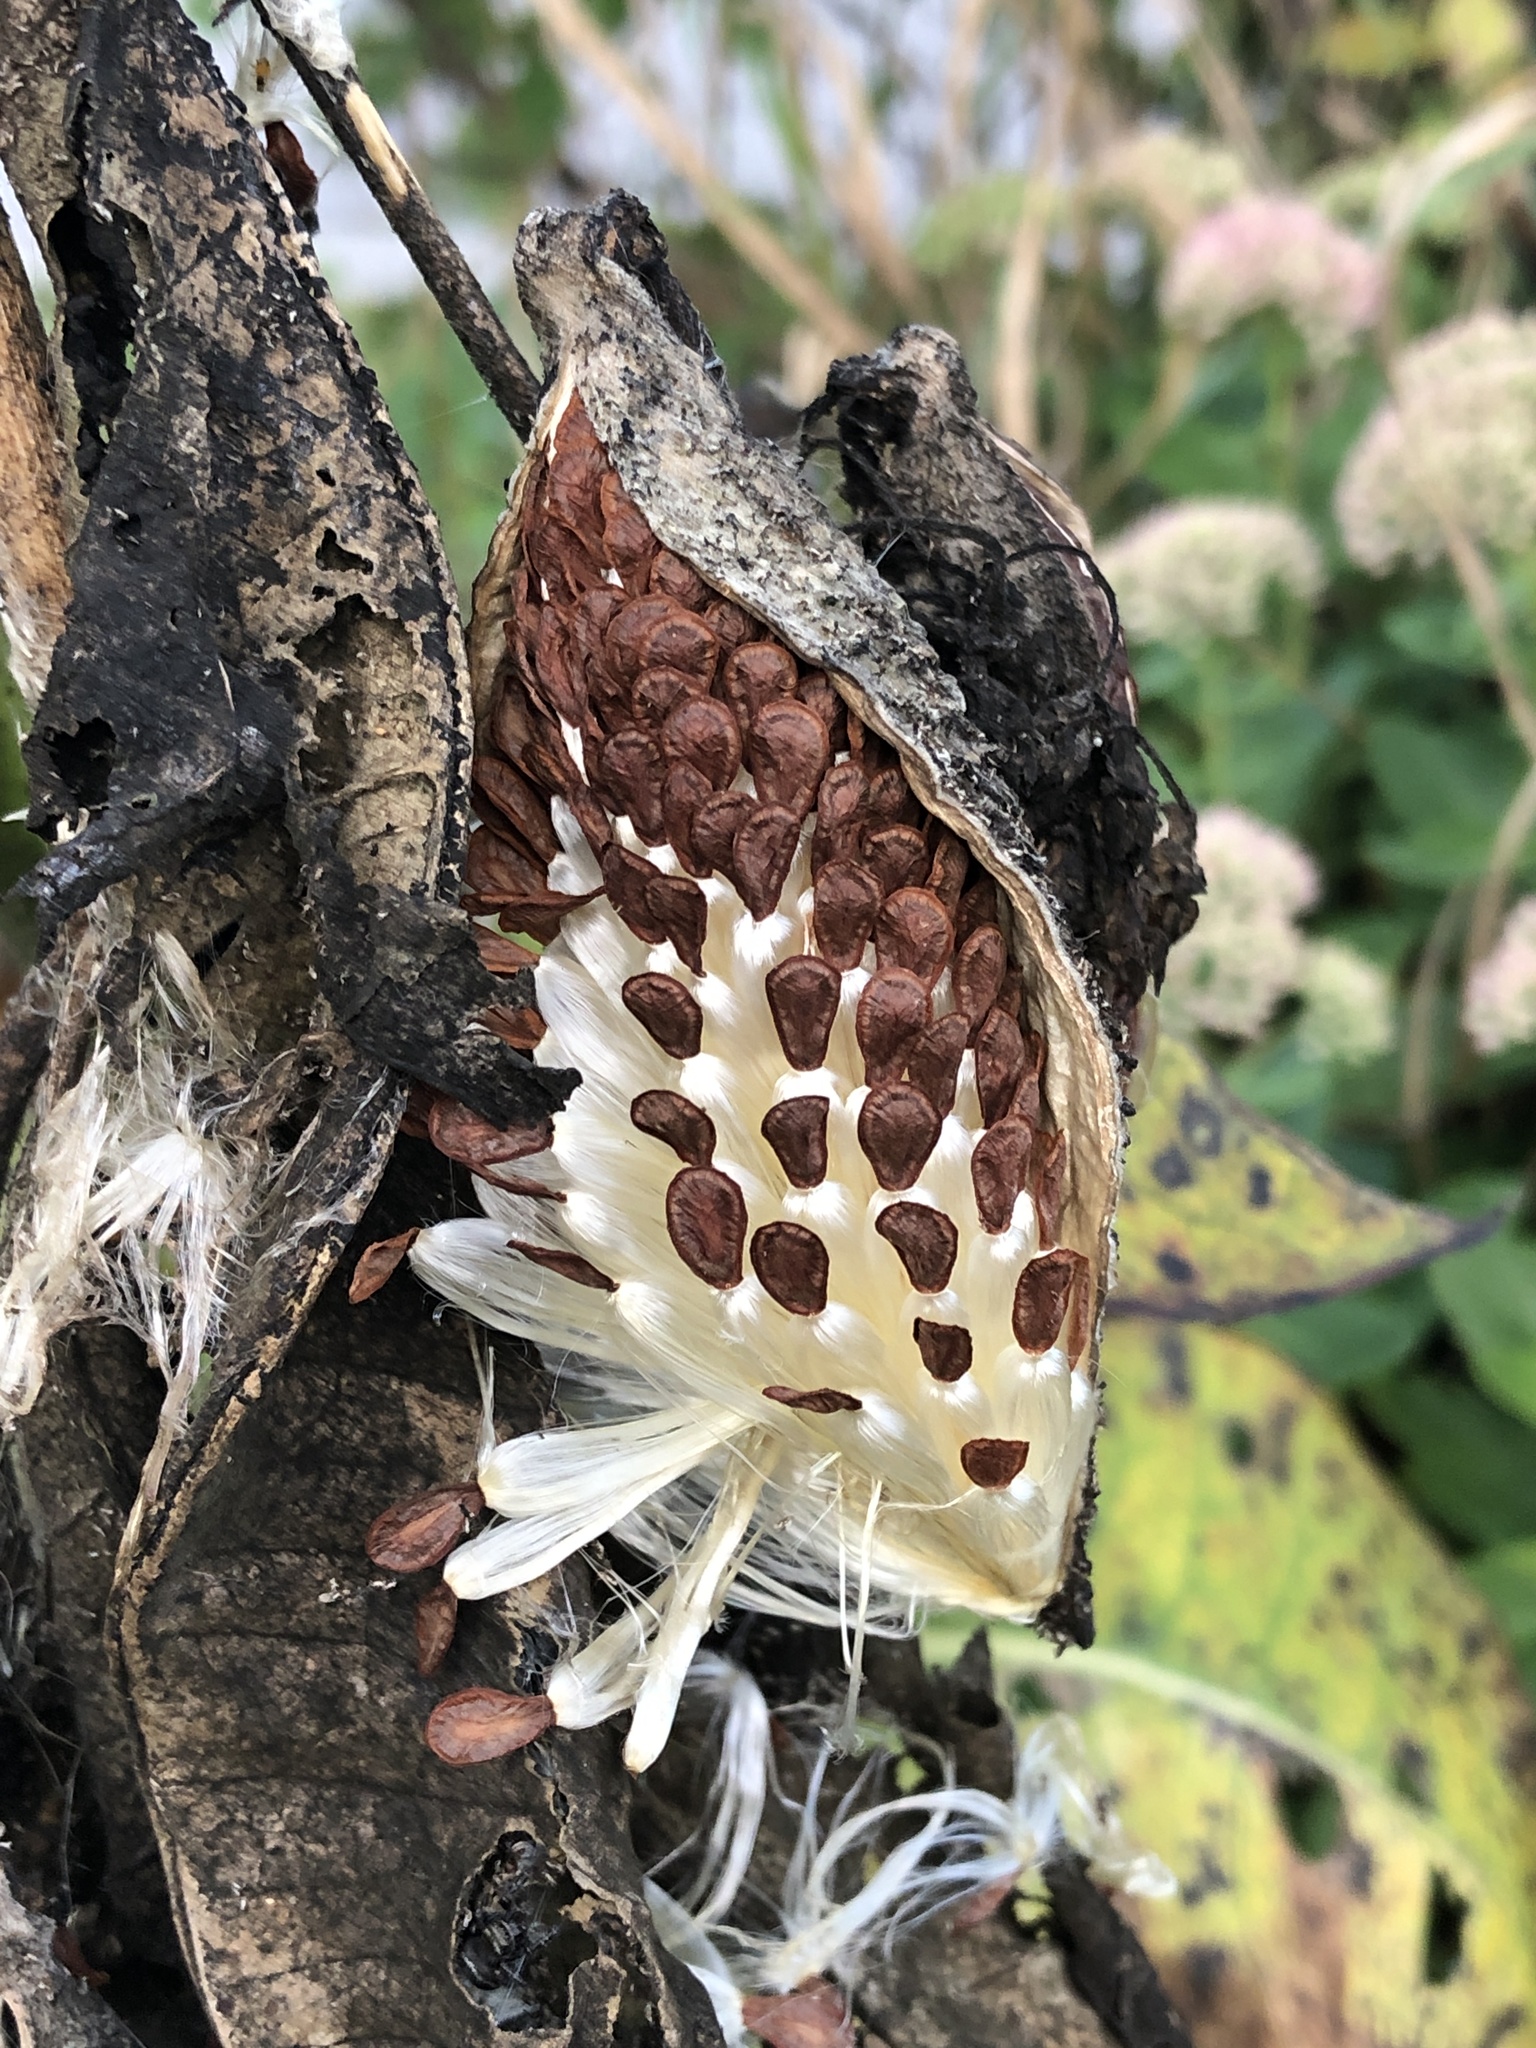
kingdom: Plantae
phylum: Tracheophyta
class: Magnoliopsida
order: Gentianales
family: Apocynaceae
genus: Asclepias
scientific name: Asclepias syriaca
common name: Common milkweed
